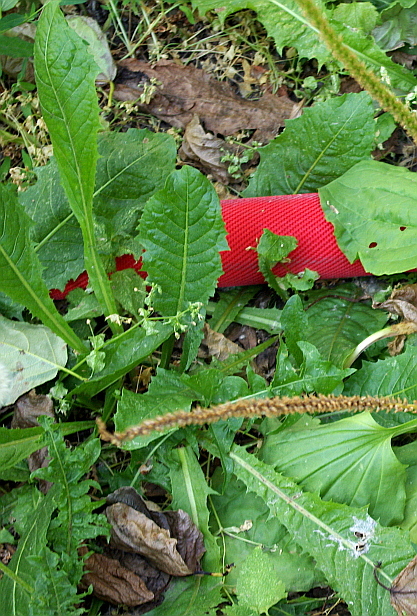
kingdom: Plantae
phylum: Tracheophyta
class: Magnoliopsida
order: Asterales
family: Asteraceae
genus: Taraxacum
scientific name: Taraxacum officinale
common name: Common dandelion
